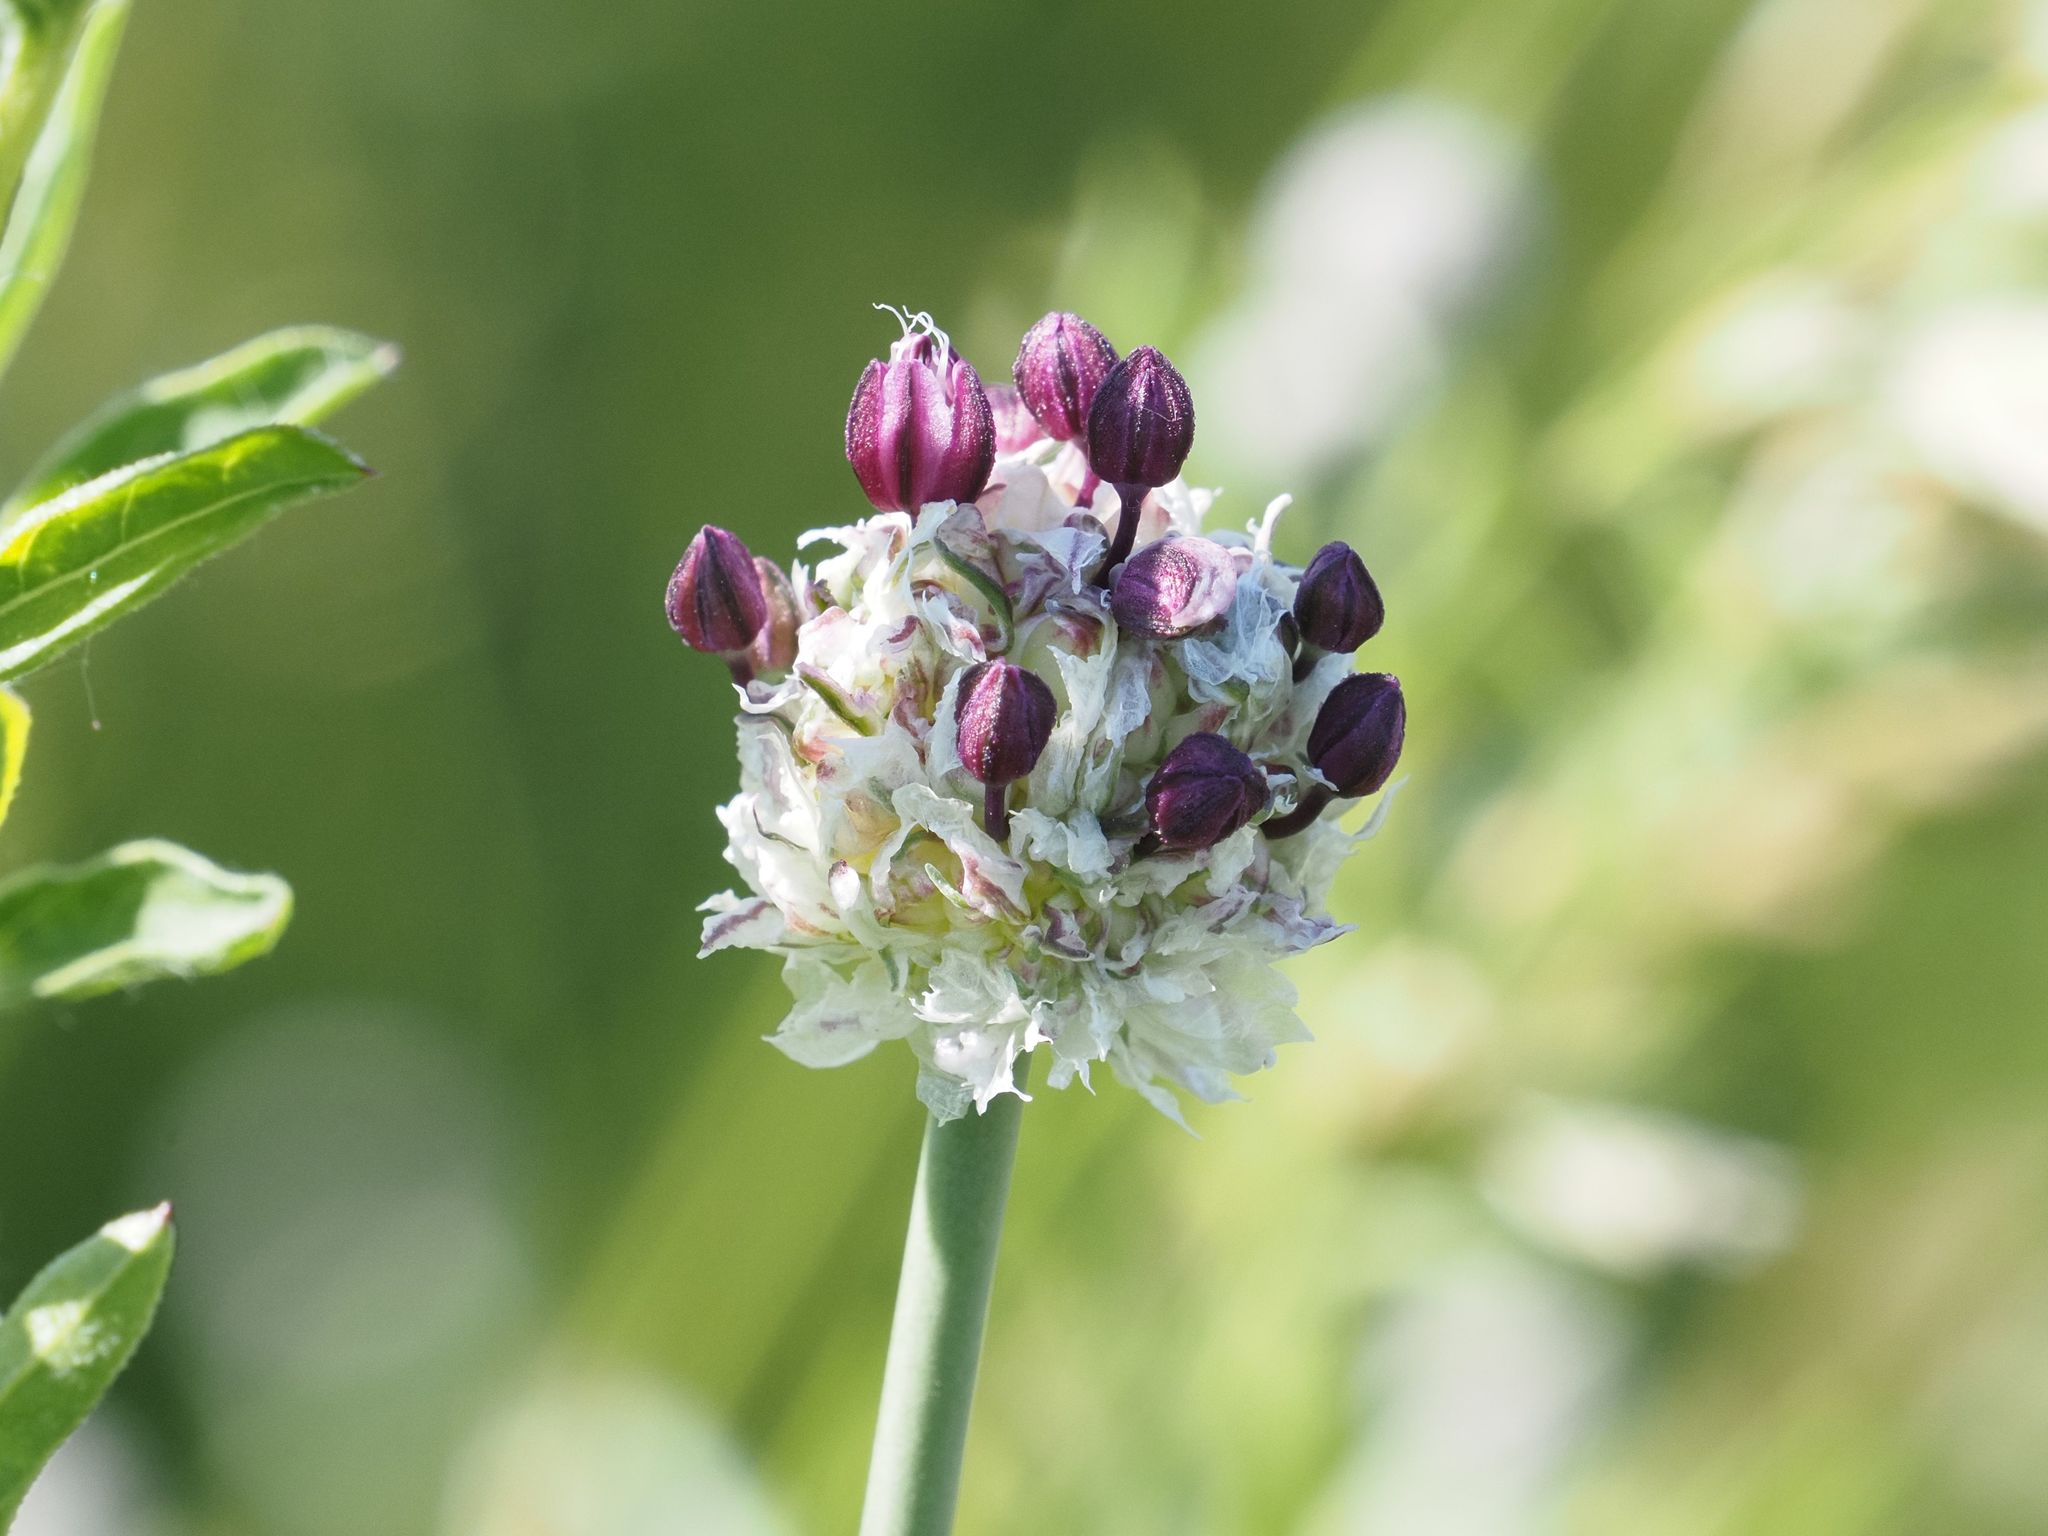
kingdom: Plantae
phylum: Tracheophyta
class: Liliopsida
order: Asparagales
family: Amaryllidaceae
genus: Allium
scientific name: Allium scorodoprasum
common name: Sand leek
